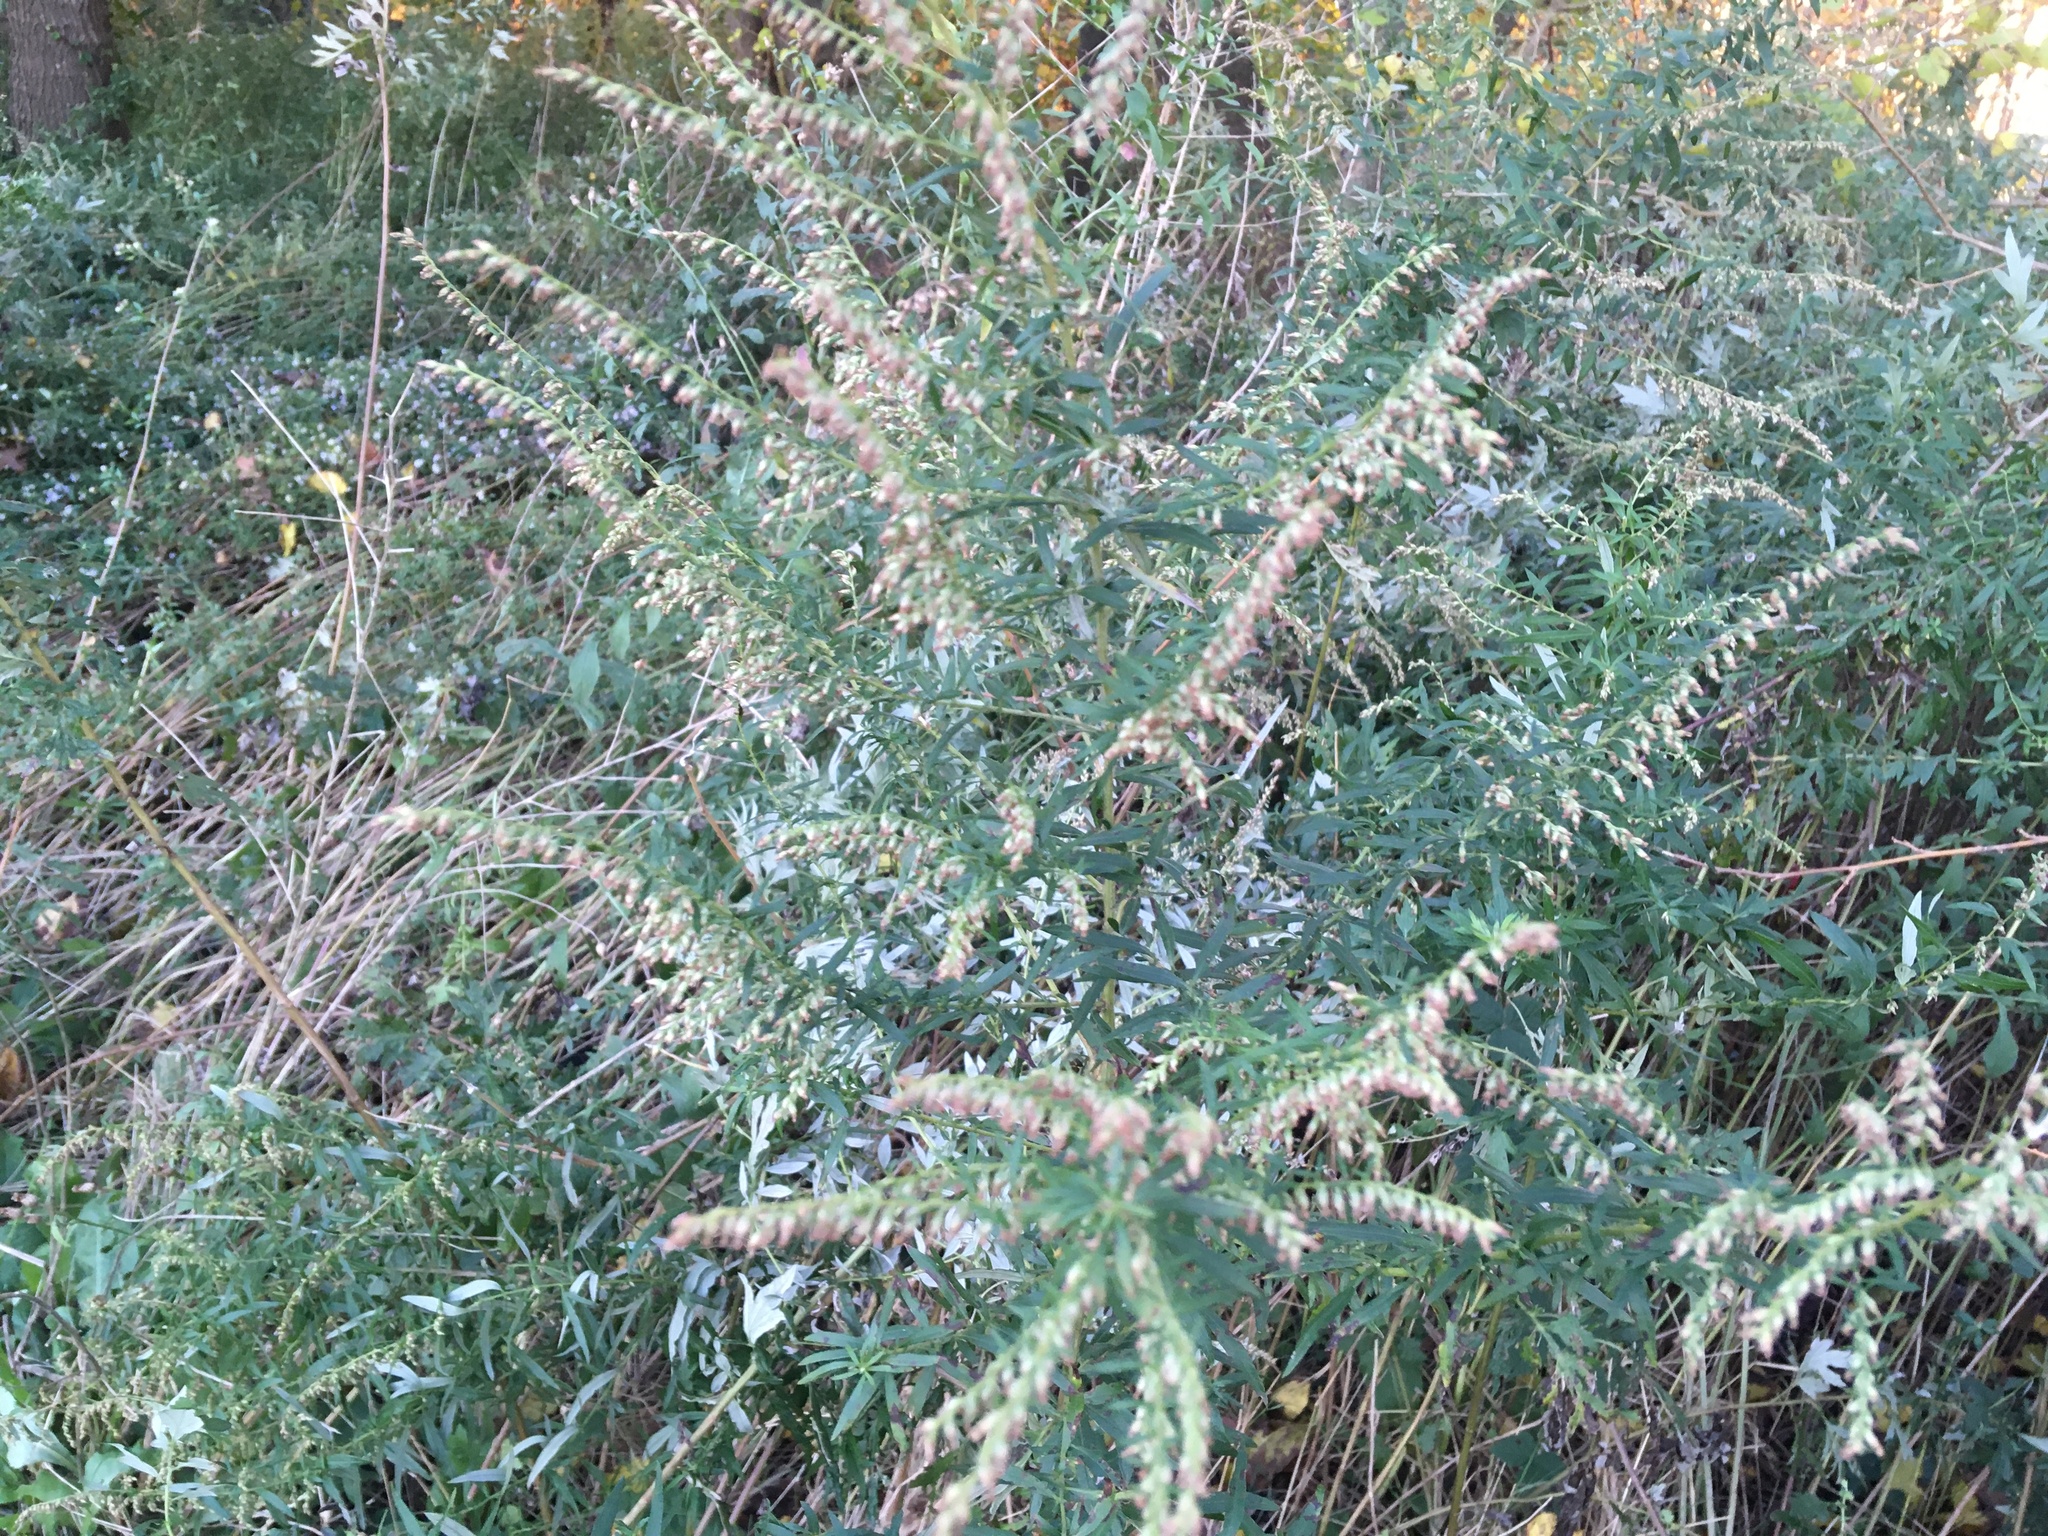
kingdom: Plantae
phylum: Tracheophyta
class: Magnoliopsida
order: Asterales
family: Asteraceae
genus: Artemisia
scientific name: Artemisia vulgaris
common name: Mugwort
